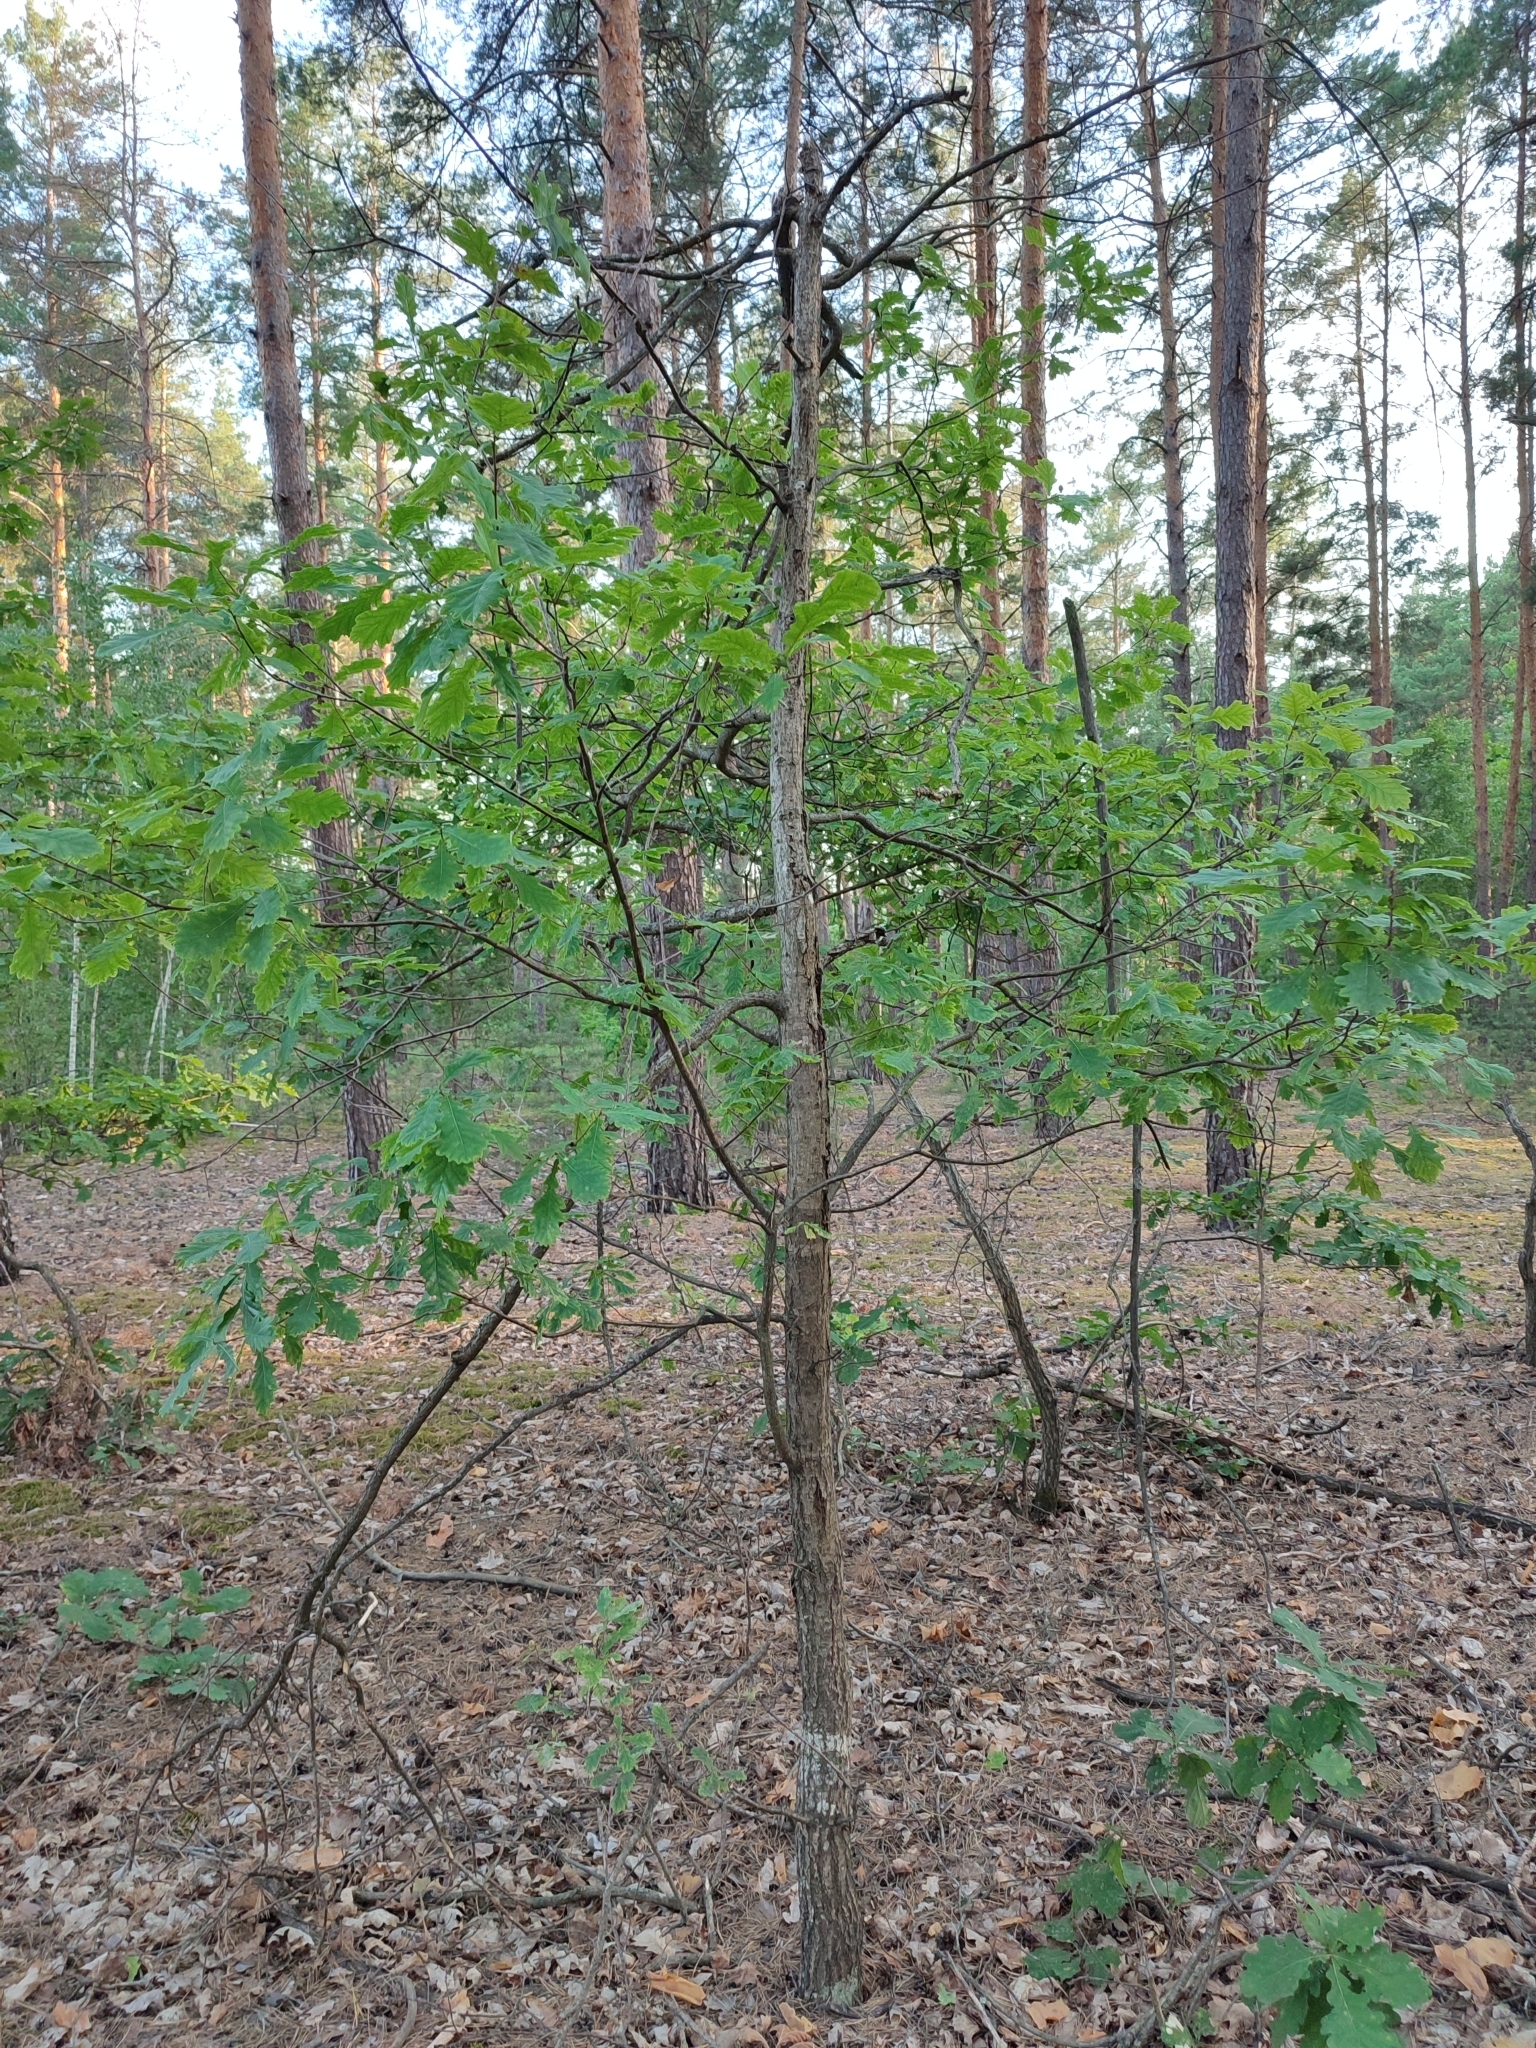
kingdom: Plantae
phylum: Tracheophyta
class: Magnoliopsida
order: Fagales
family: Fagaceae
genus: Quercus
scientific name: Quercus robur
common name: Pedunculate oak
